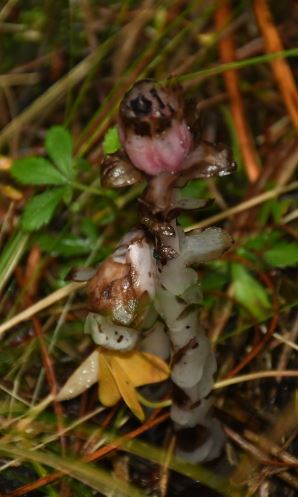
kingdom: Plantae
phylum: Tracheophyta
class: Magnoliopsida
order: Ericales
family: Ericaceae
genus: Monotropa
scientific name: Monotropa uniflora
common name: Convulsion root
